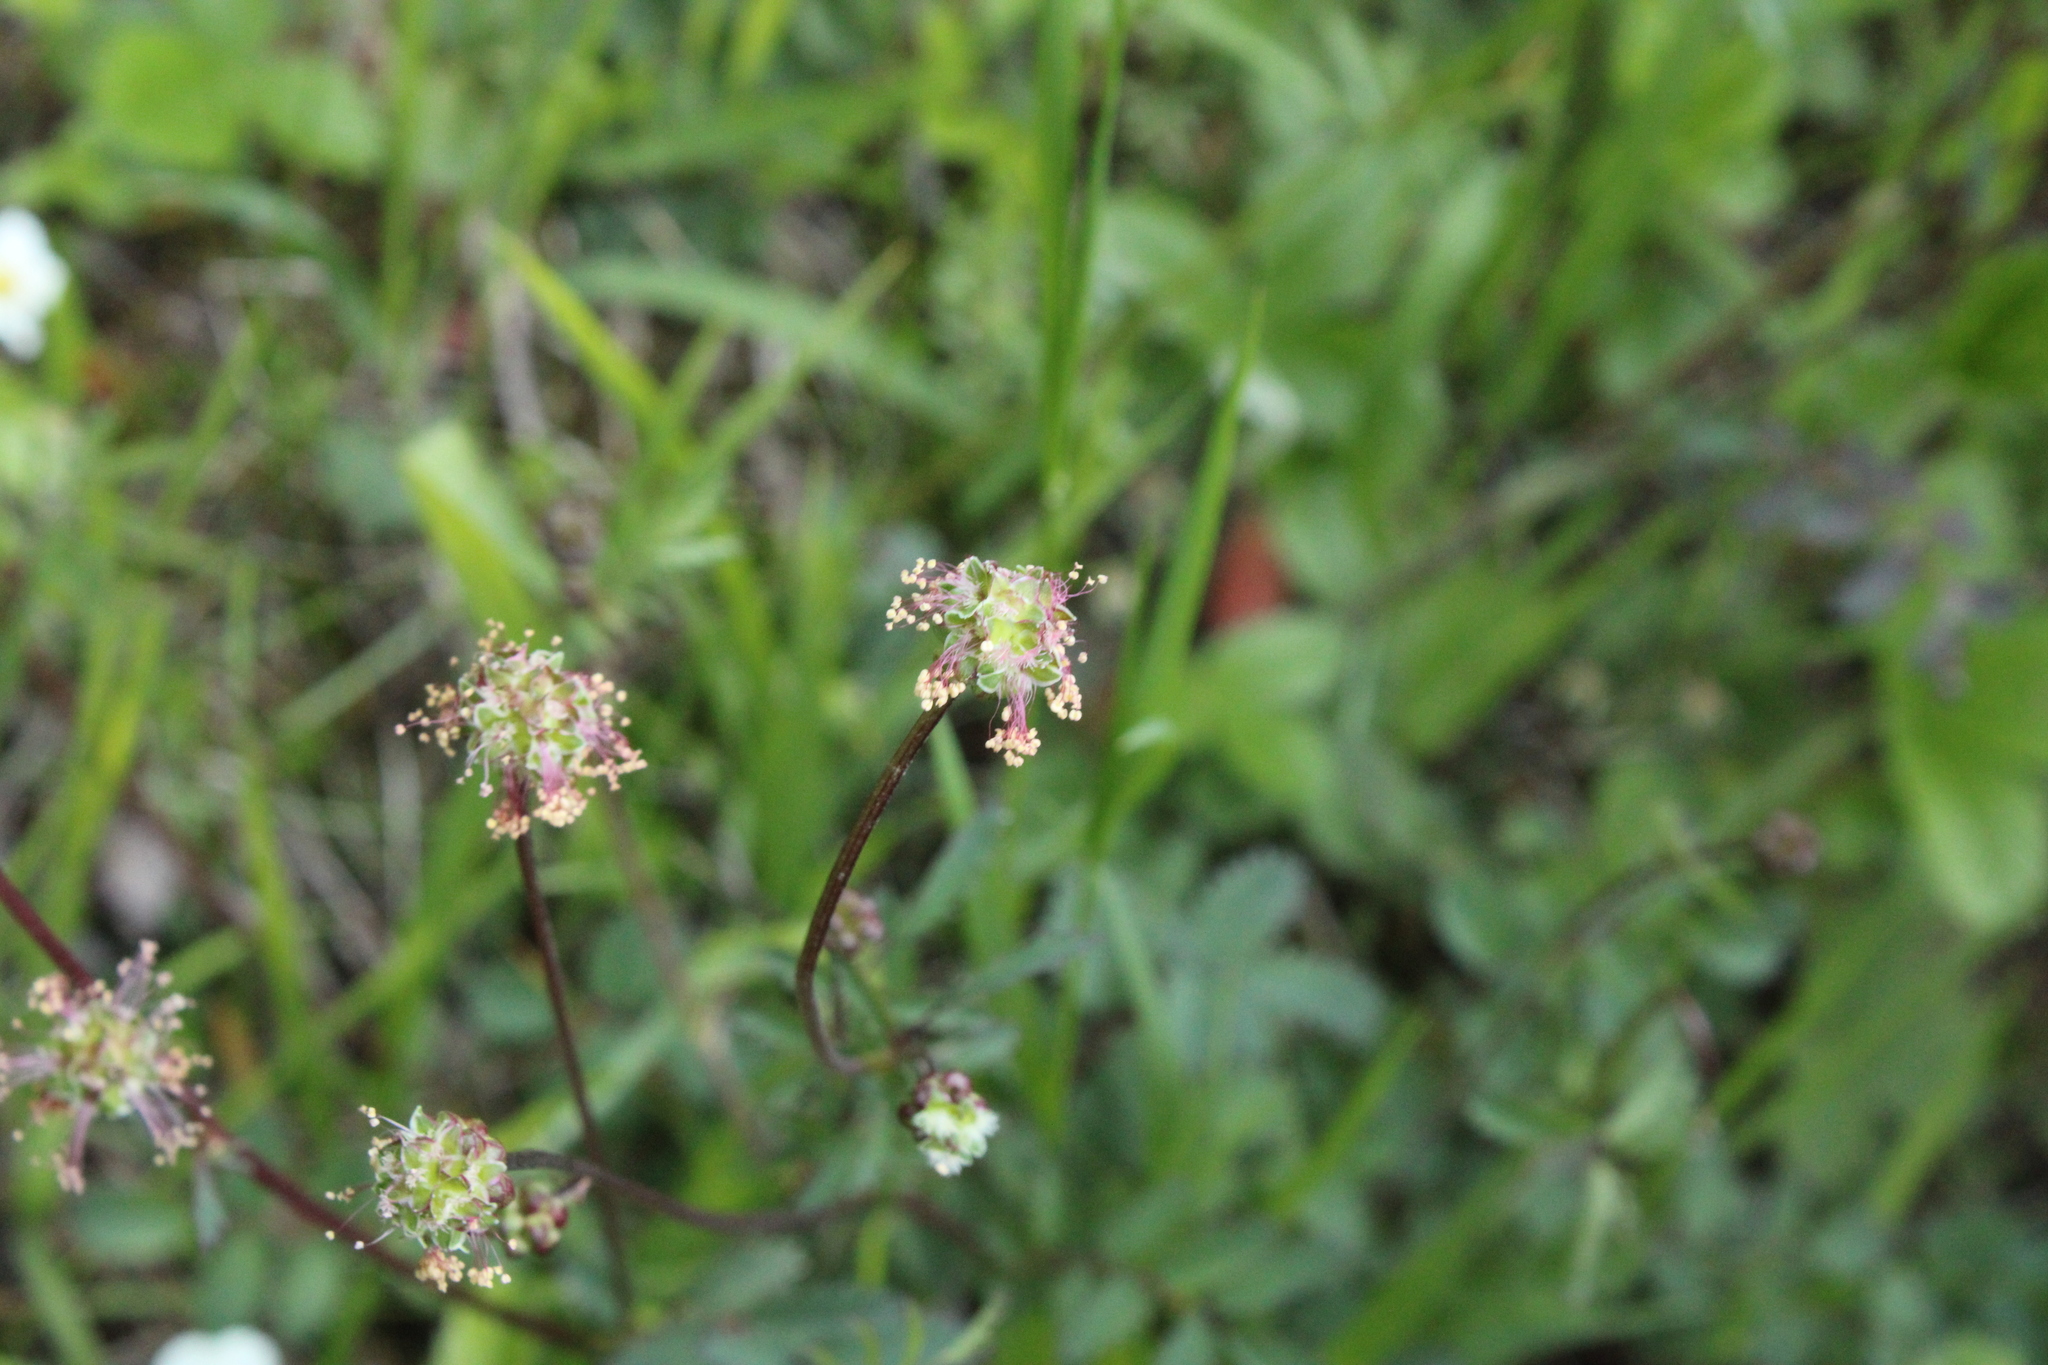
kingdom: Plantae
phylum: Tracheophyta
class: Magnoliopsida
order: Rosales
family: Rosaceae
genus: Poterium
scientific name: Poterium sanguisorba
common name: Salad burnet
